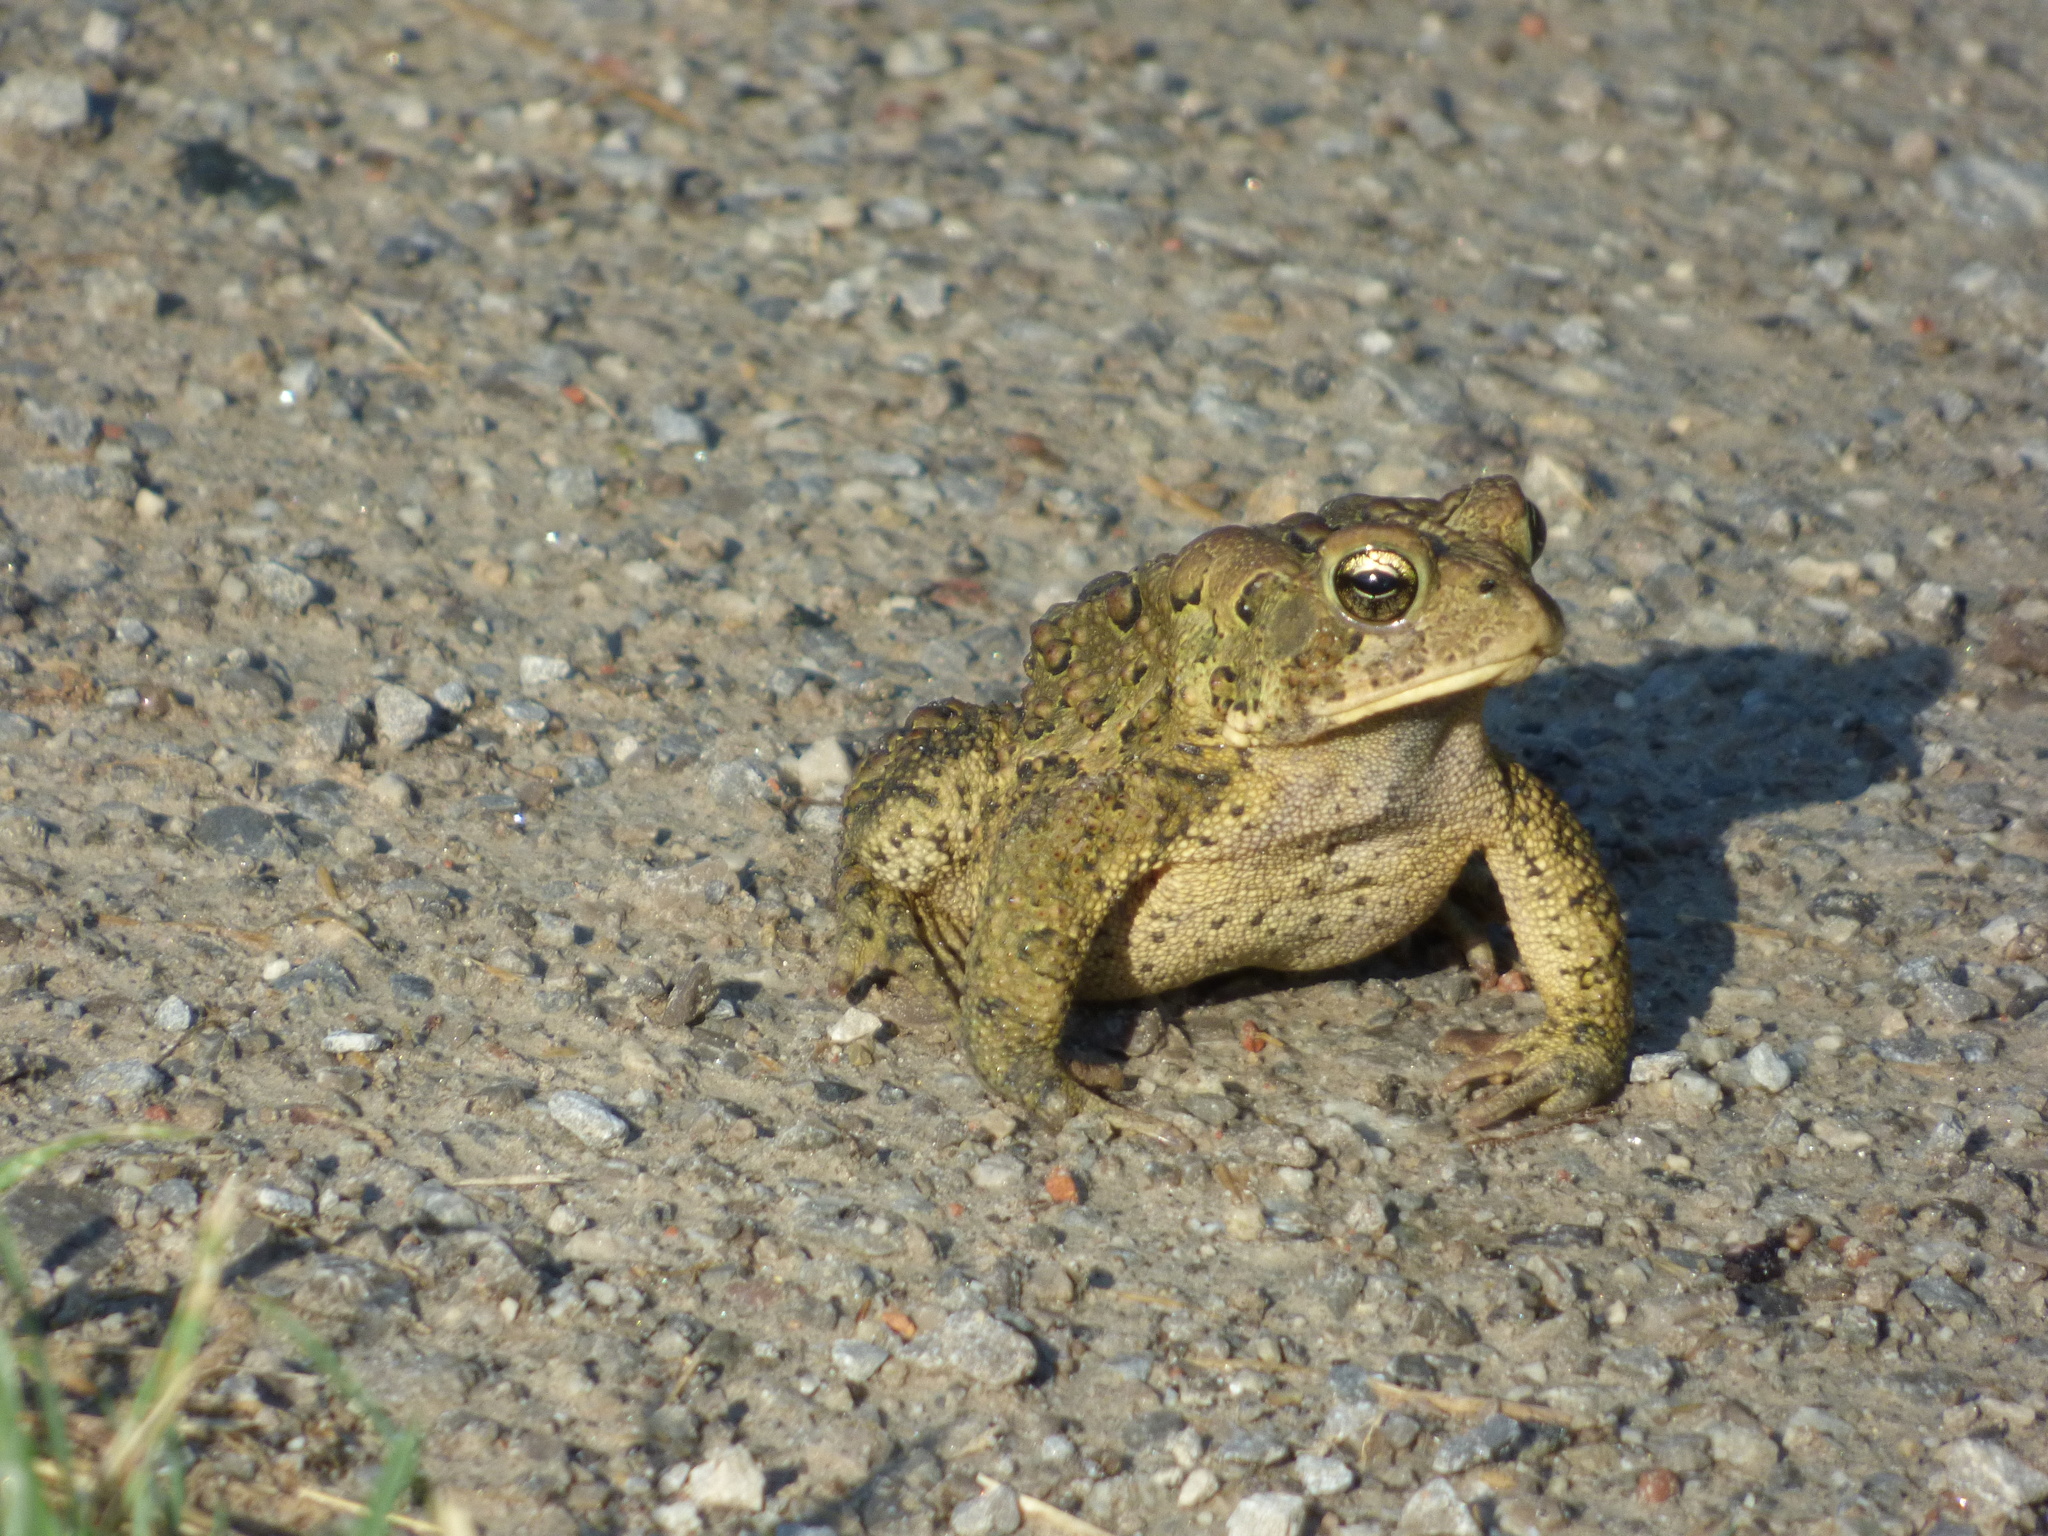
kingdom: Animalia
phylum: Chordata
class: Amphibia
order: Anura
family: Bufonidae
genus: Anaxyrus
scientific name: Anaxyrus americanus
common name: American toad
